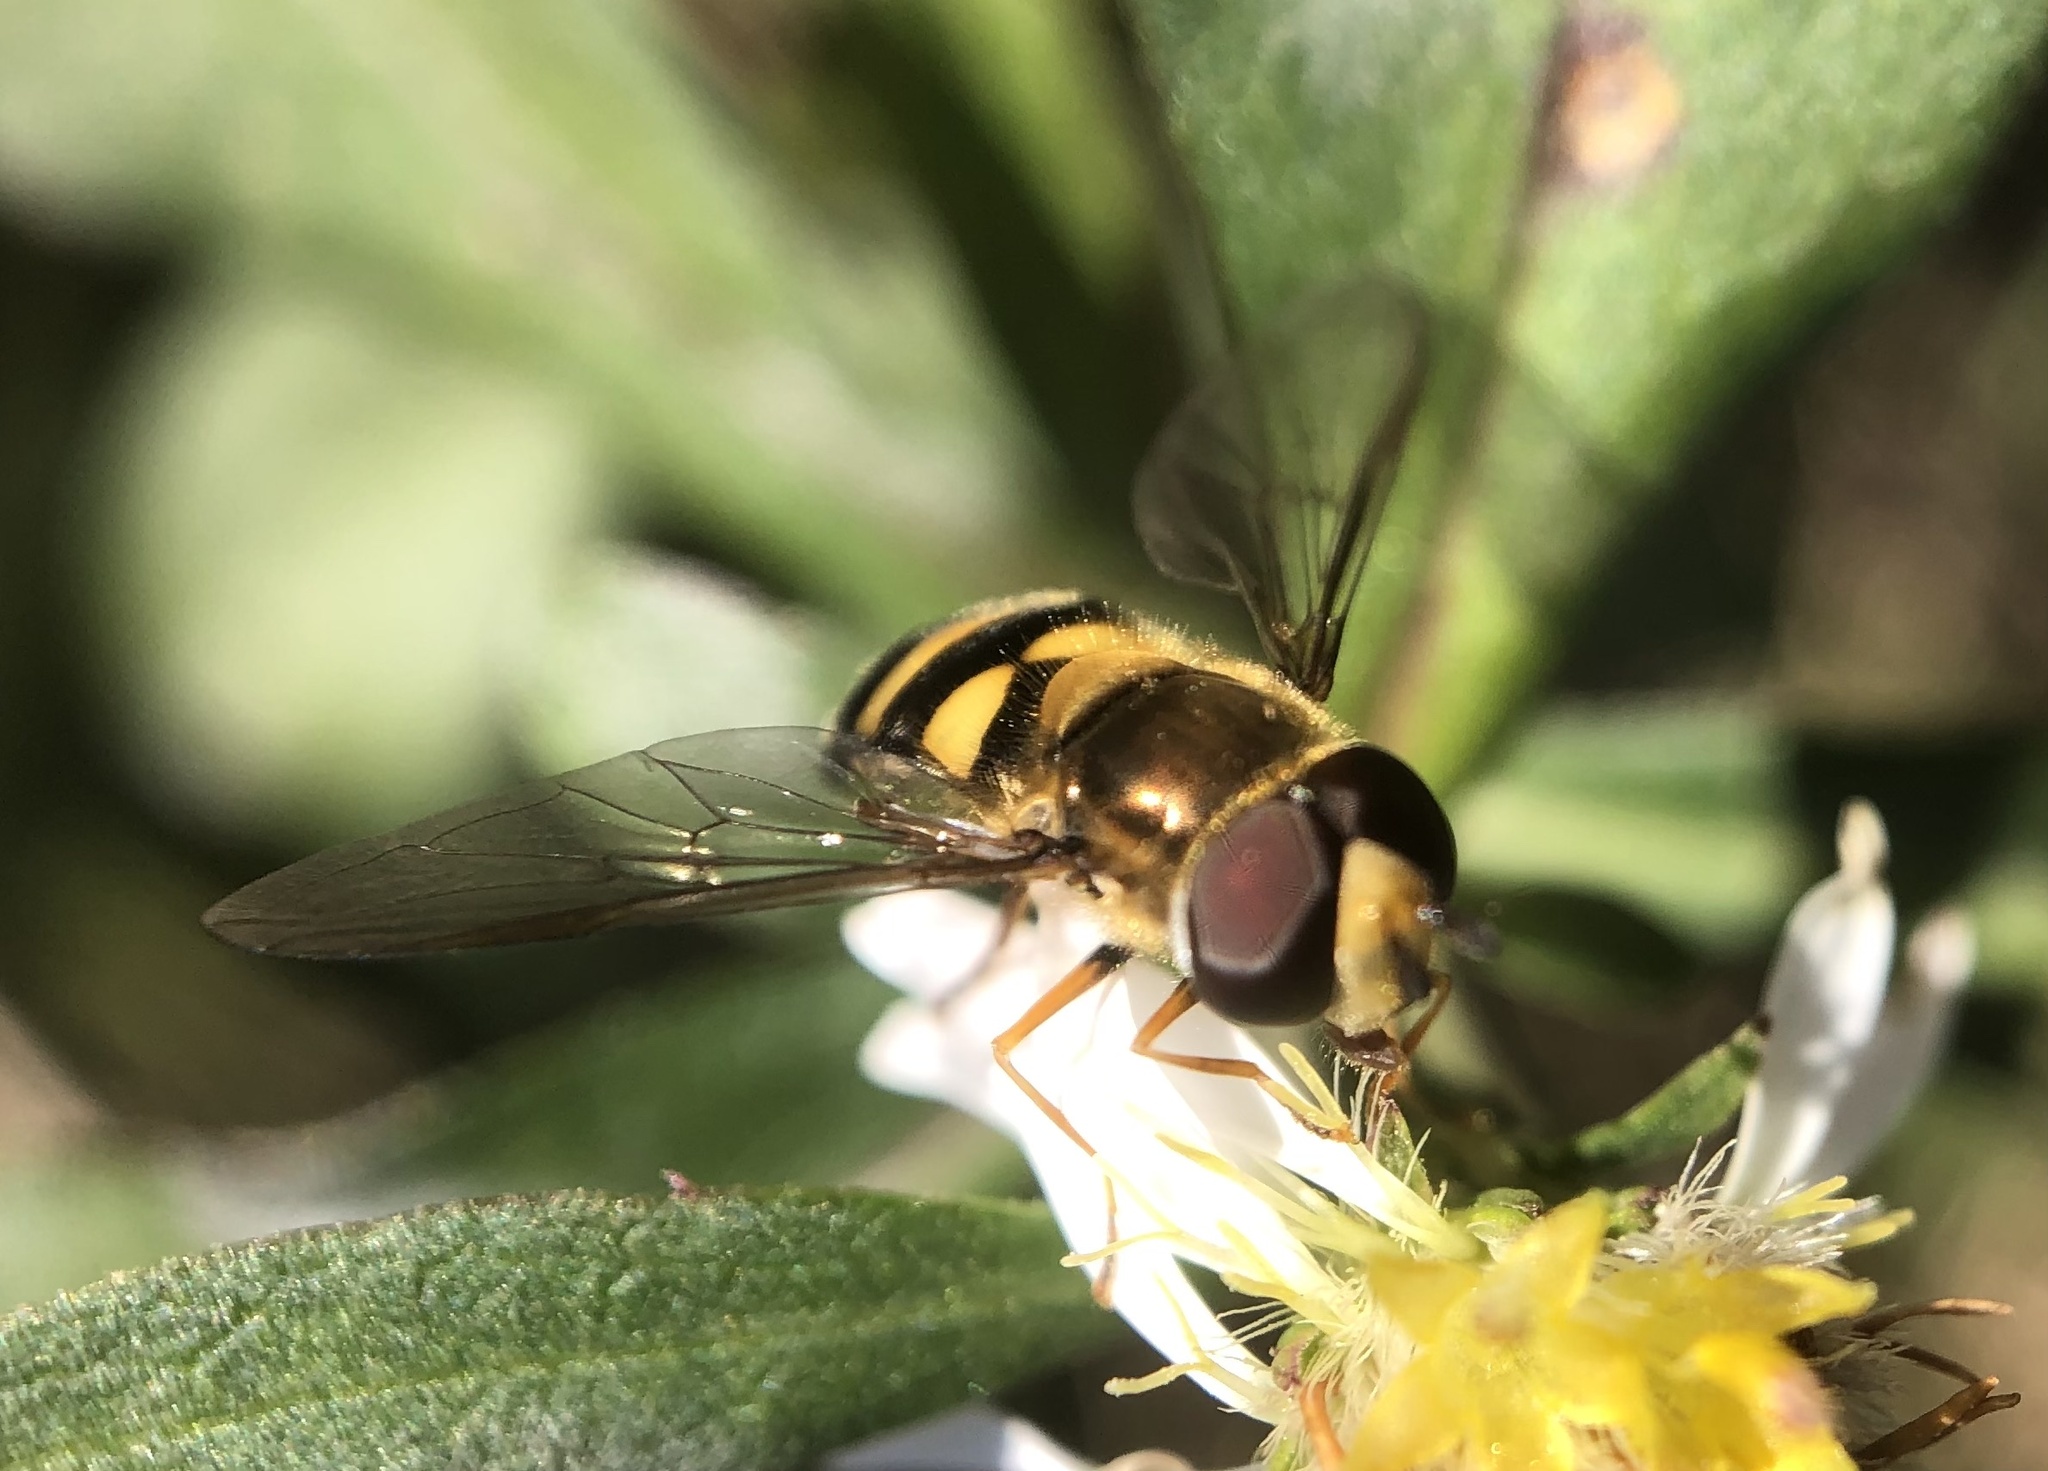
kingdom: Animalia
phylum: Arthropoda
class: Insecta
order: Diptera
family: Syrphidae
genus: Eupeodes
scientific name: Eupeodes
